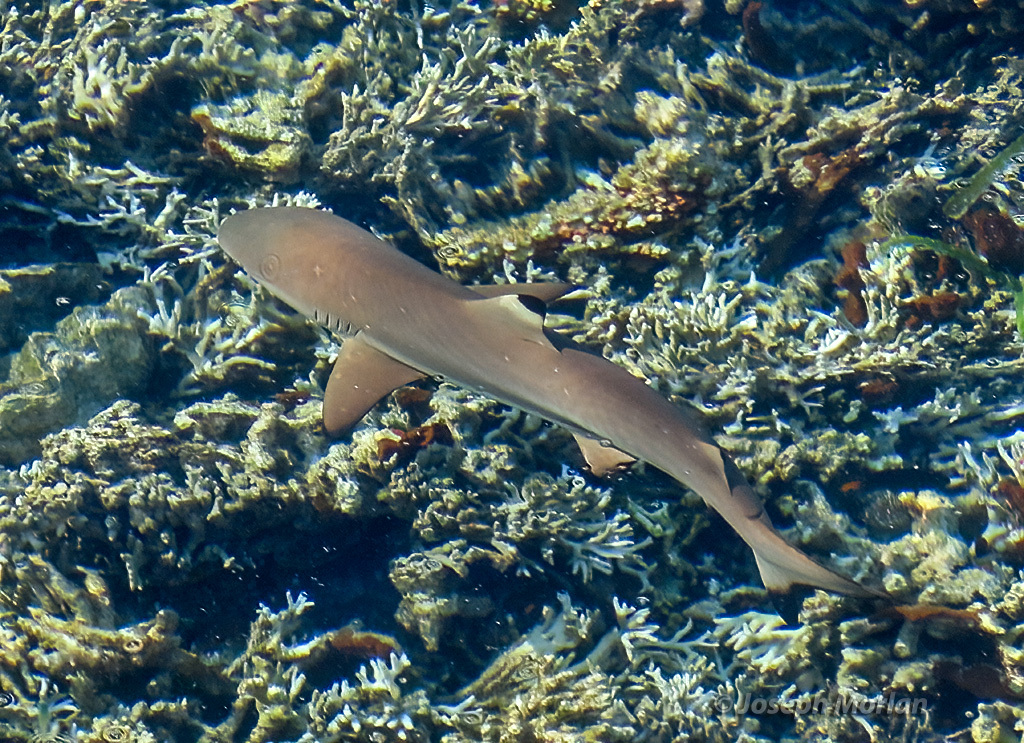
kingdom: Animalia
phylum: Chordata
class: Elasmobranchii
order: Carcharhiniformes
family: Carcharhinidae
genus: Carcharhinus
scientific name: Carcharhinus melanopterus
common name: Blacktip reef shark
